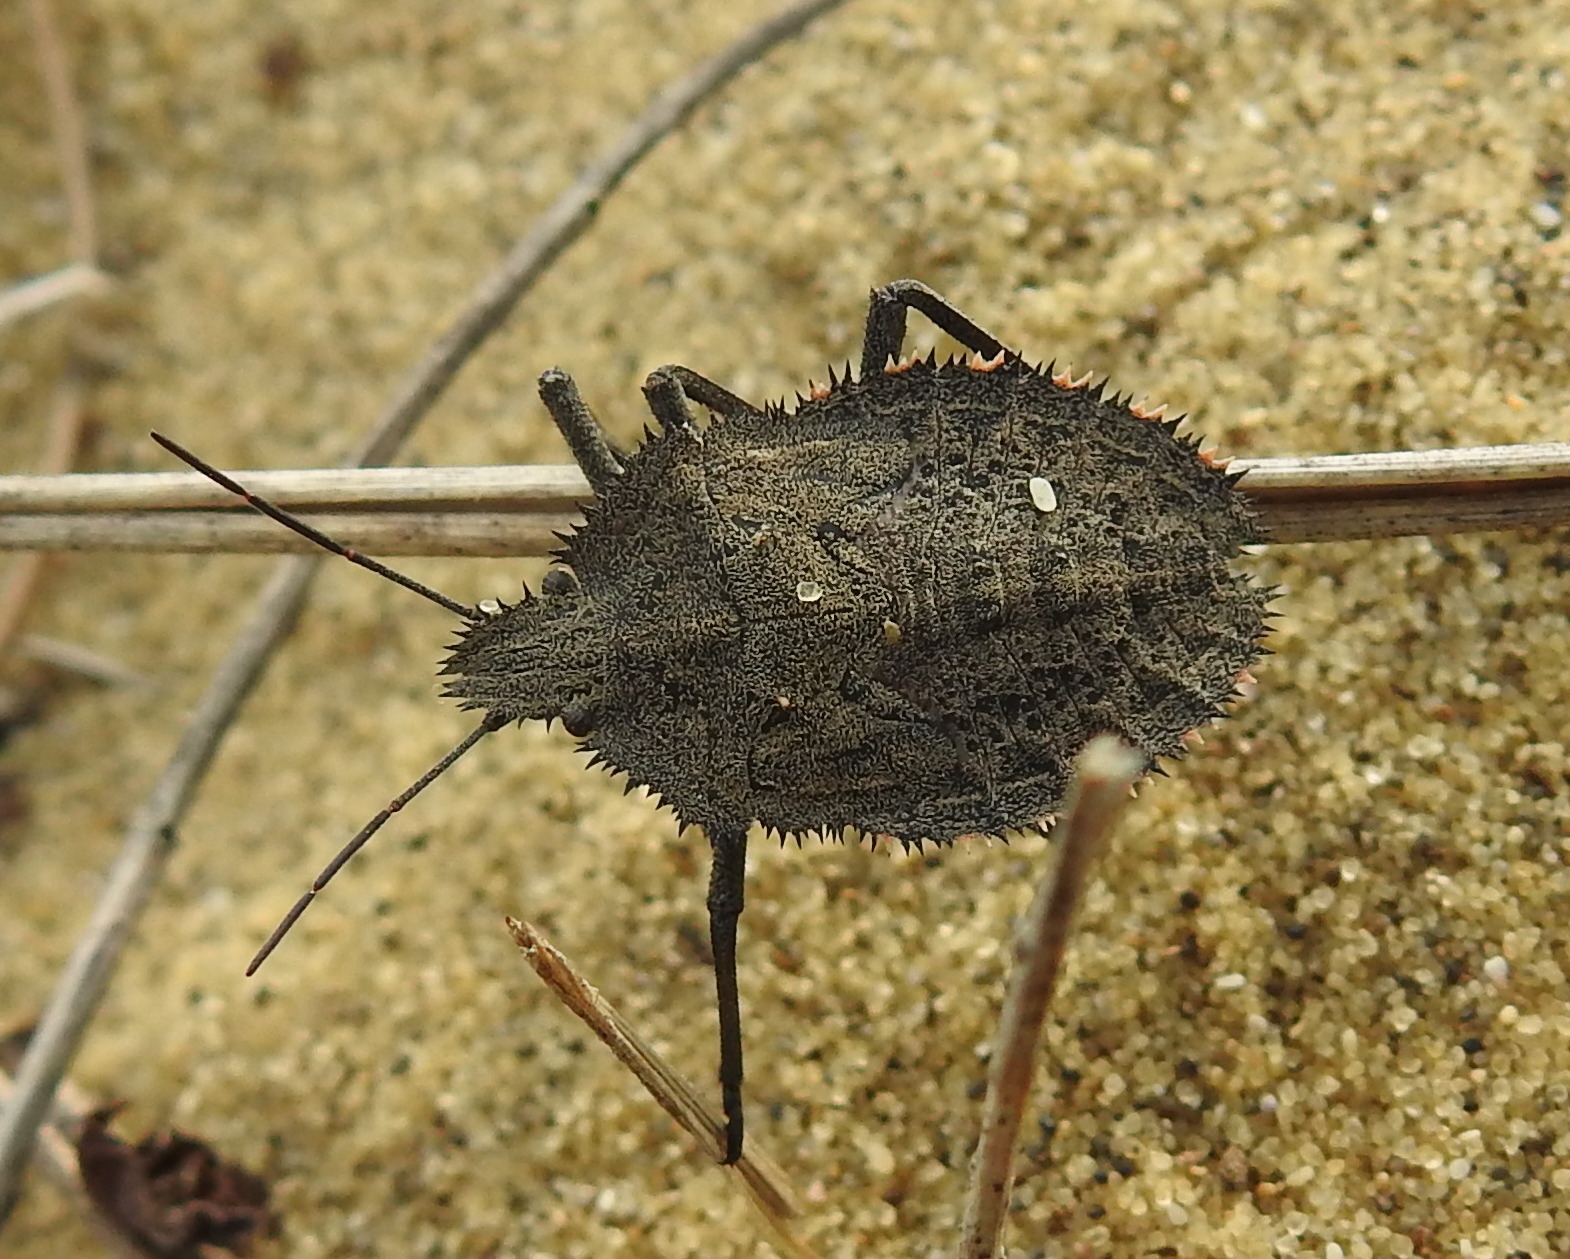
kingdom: Animalia
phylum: Arthropoda
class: Insecta
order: Hemiptera
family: Pentatomidae
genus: Mustha
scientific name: Mustha spinosula
